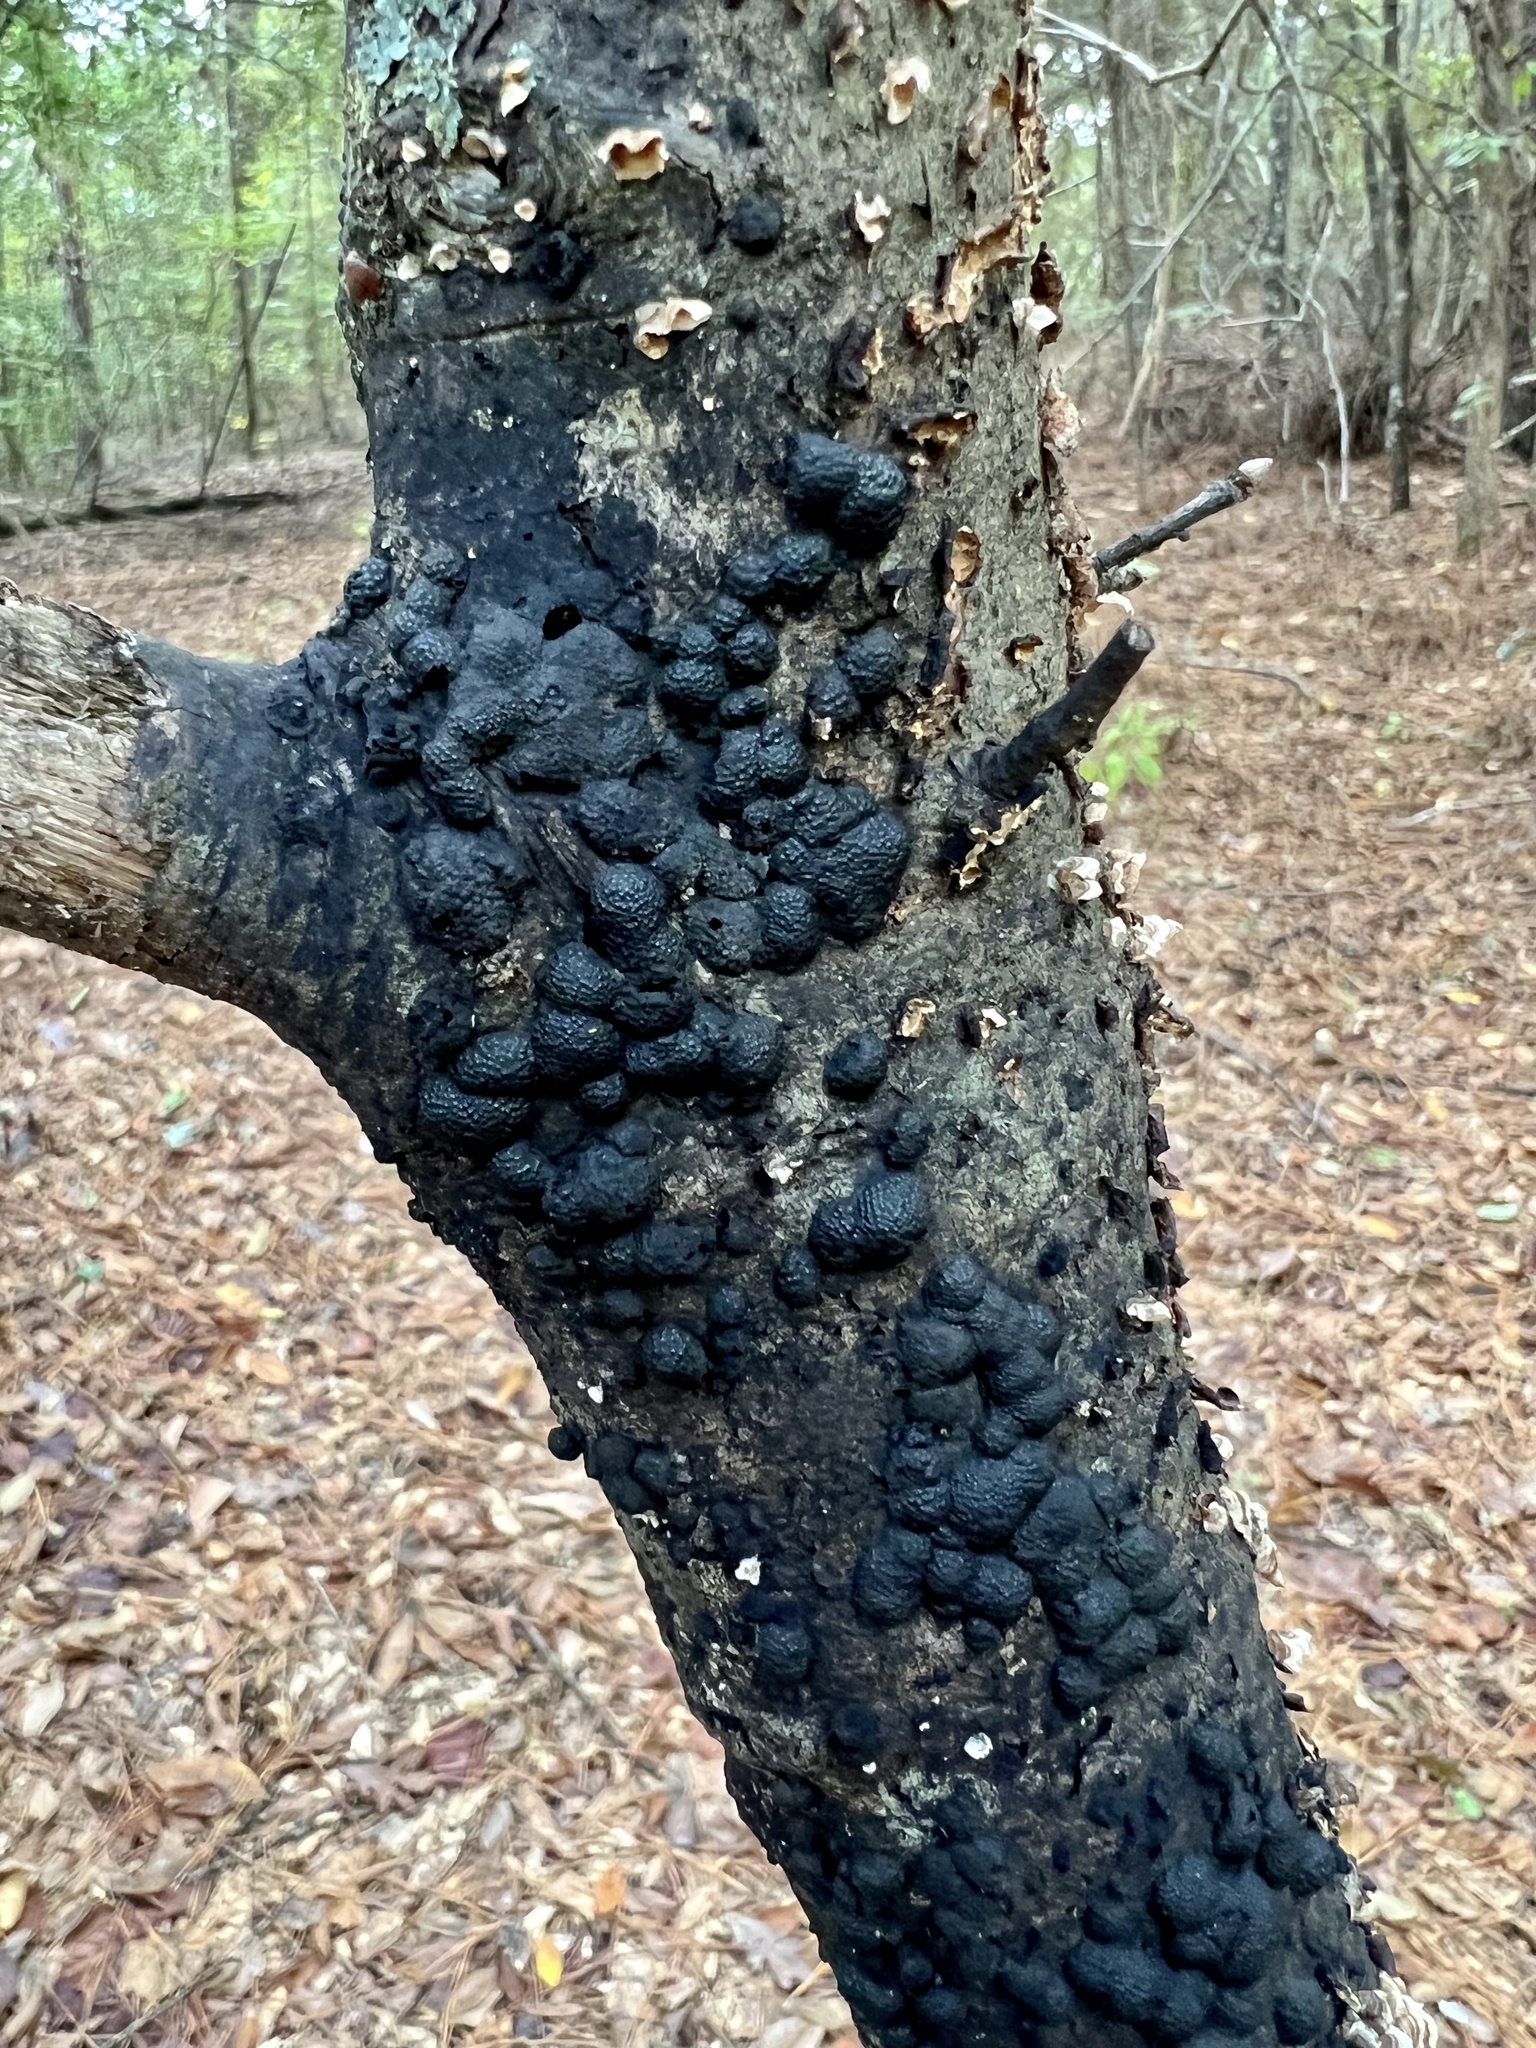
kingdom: Fungi
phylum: Ascomycota
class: Sordariomycetes
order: Xylariales
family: Hypoxylaceae
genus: Annulohypoxylon
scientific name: Annulohypoxylon thouarsianum
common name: Cramp balls
